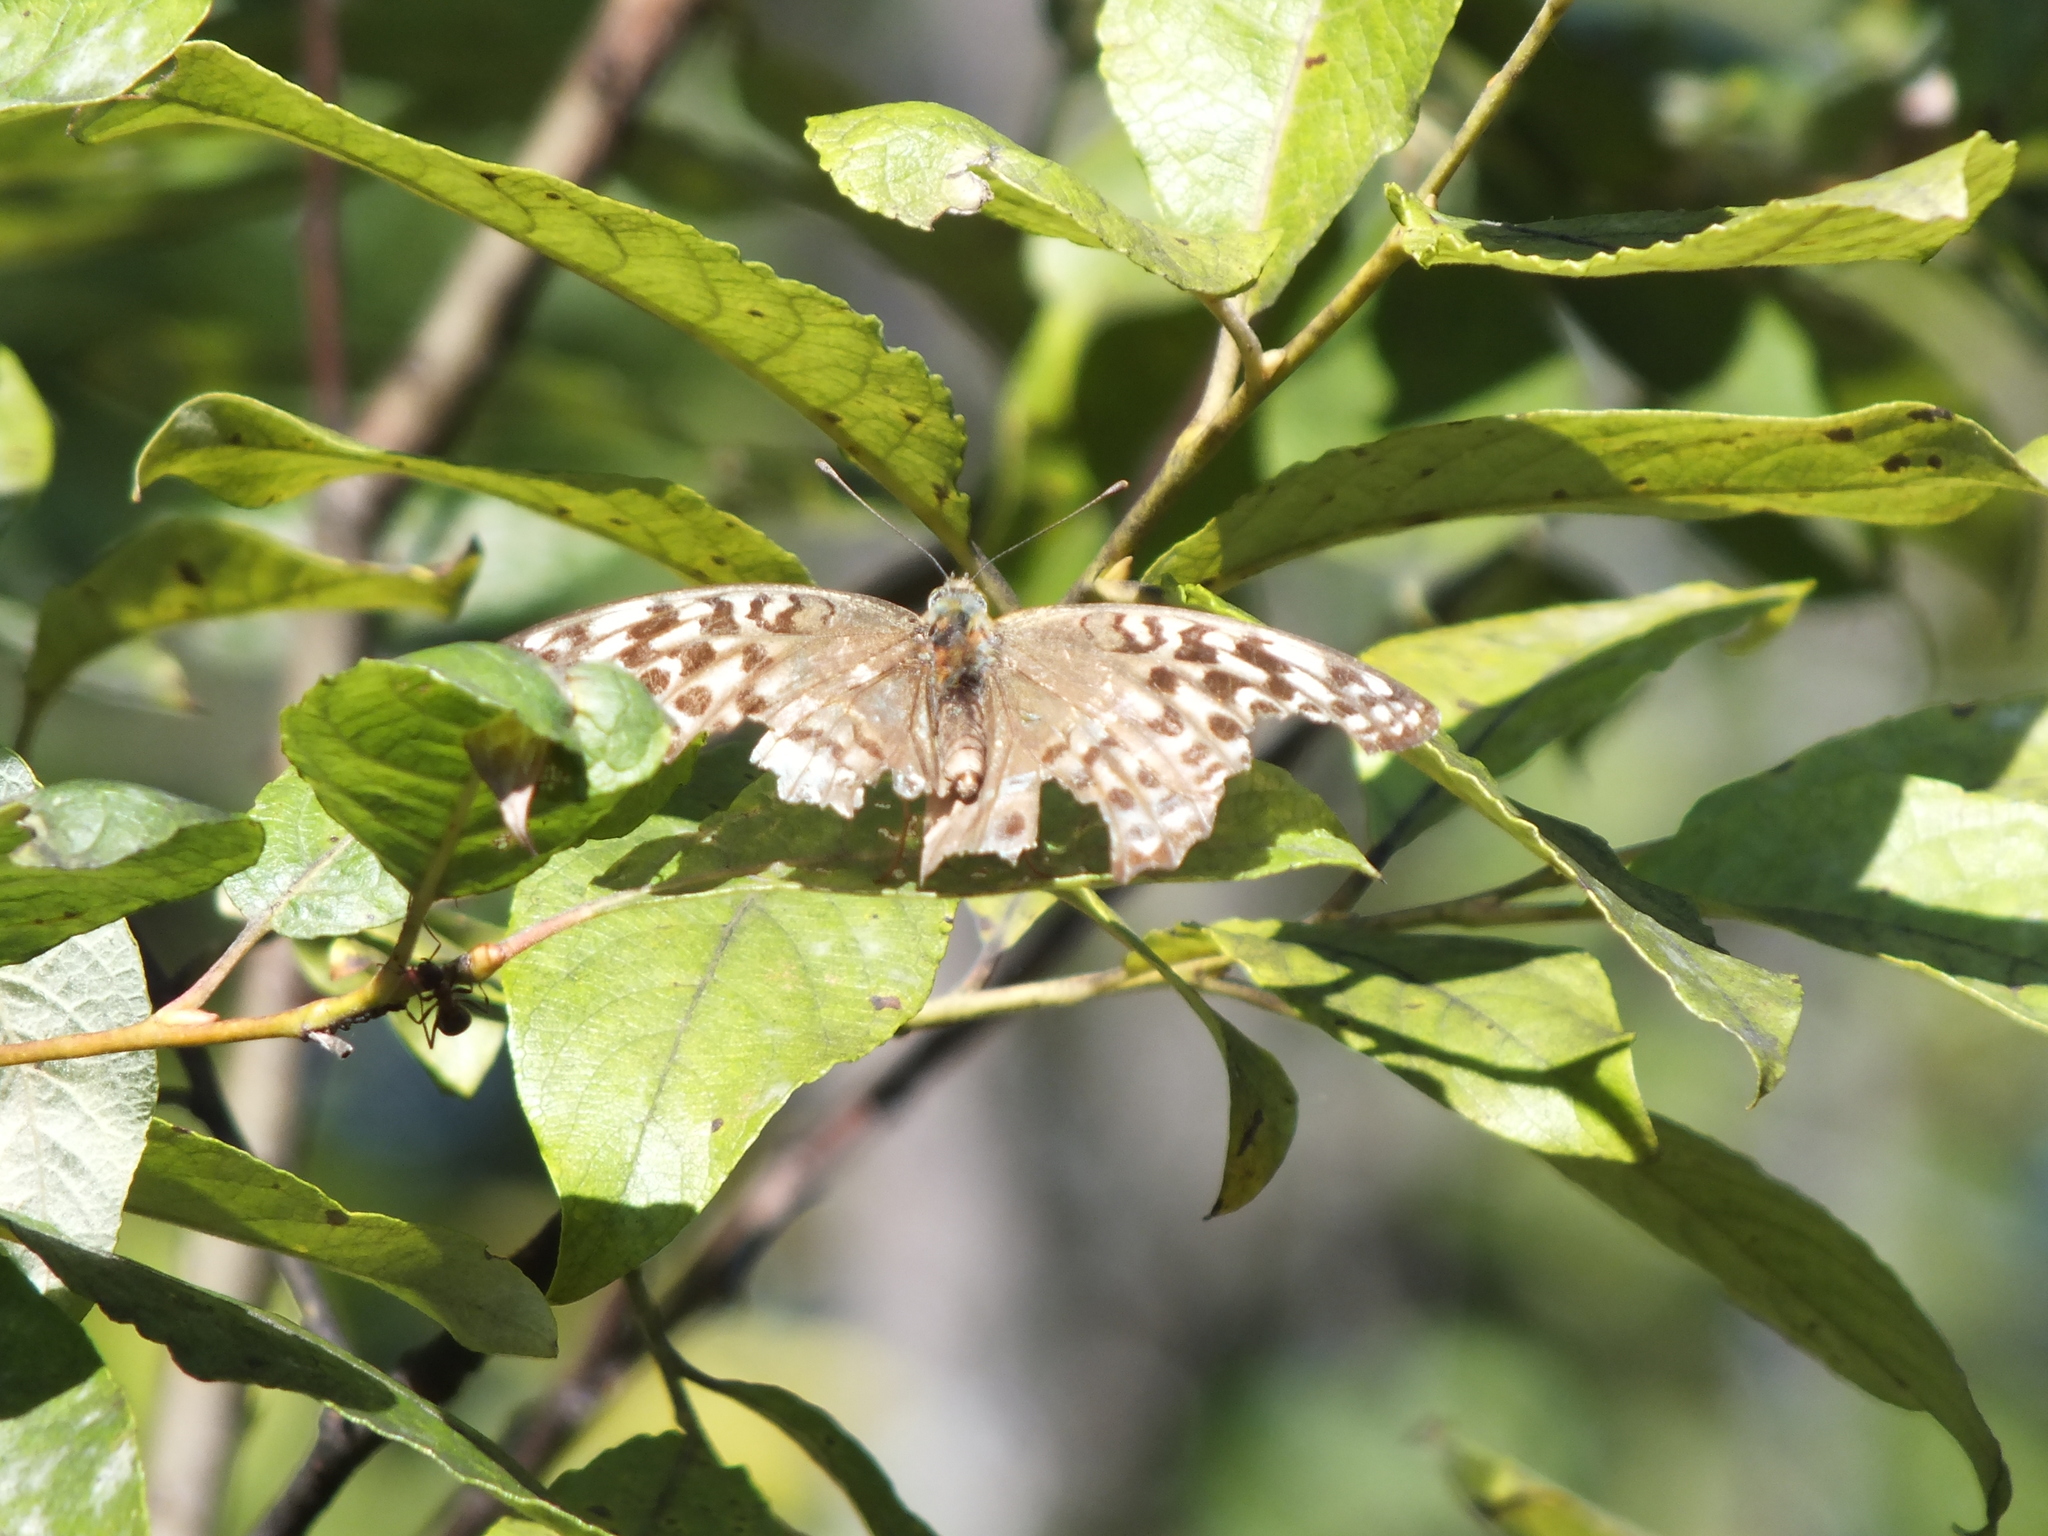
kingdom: Animalia
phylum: Arthropoda
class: Insecta
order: Lepidoptera
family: Nymphalidae
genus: Argynnis
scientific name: Argynnis paphia
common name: Silver-washed fritillary
